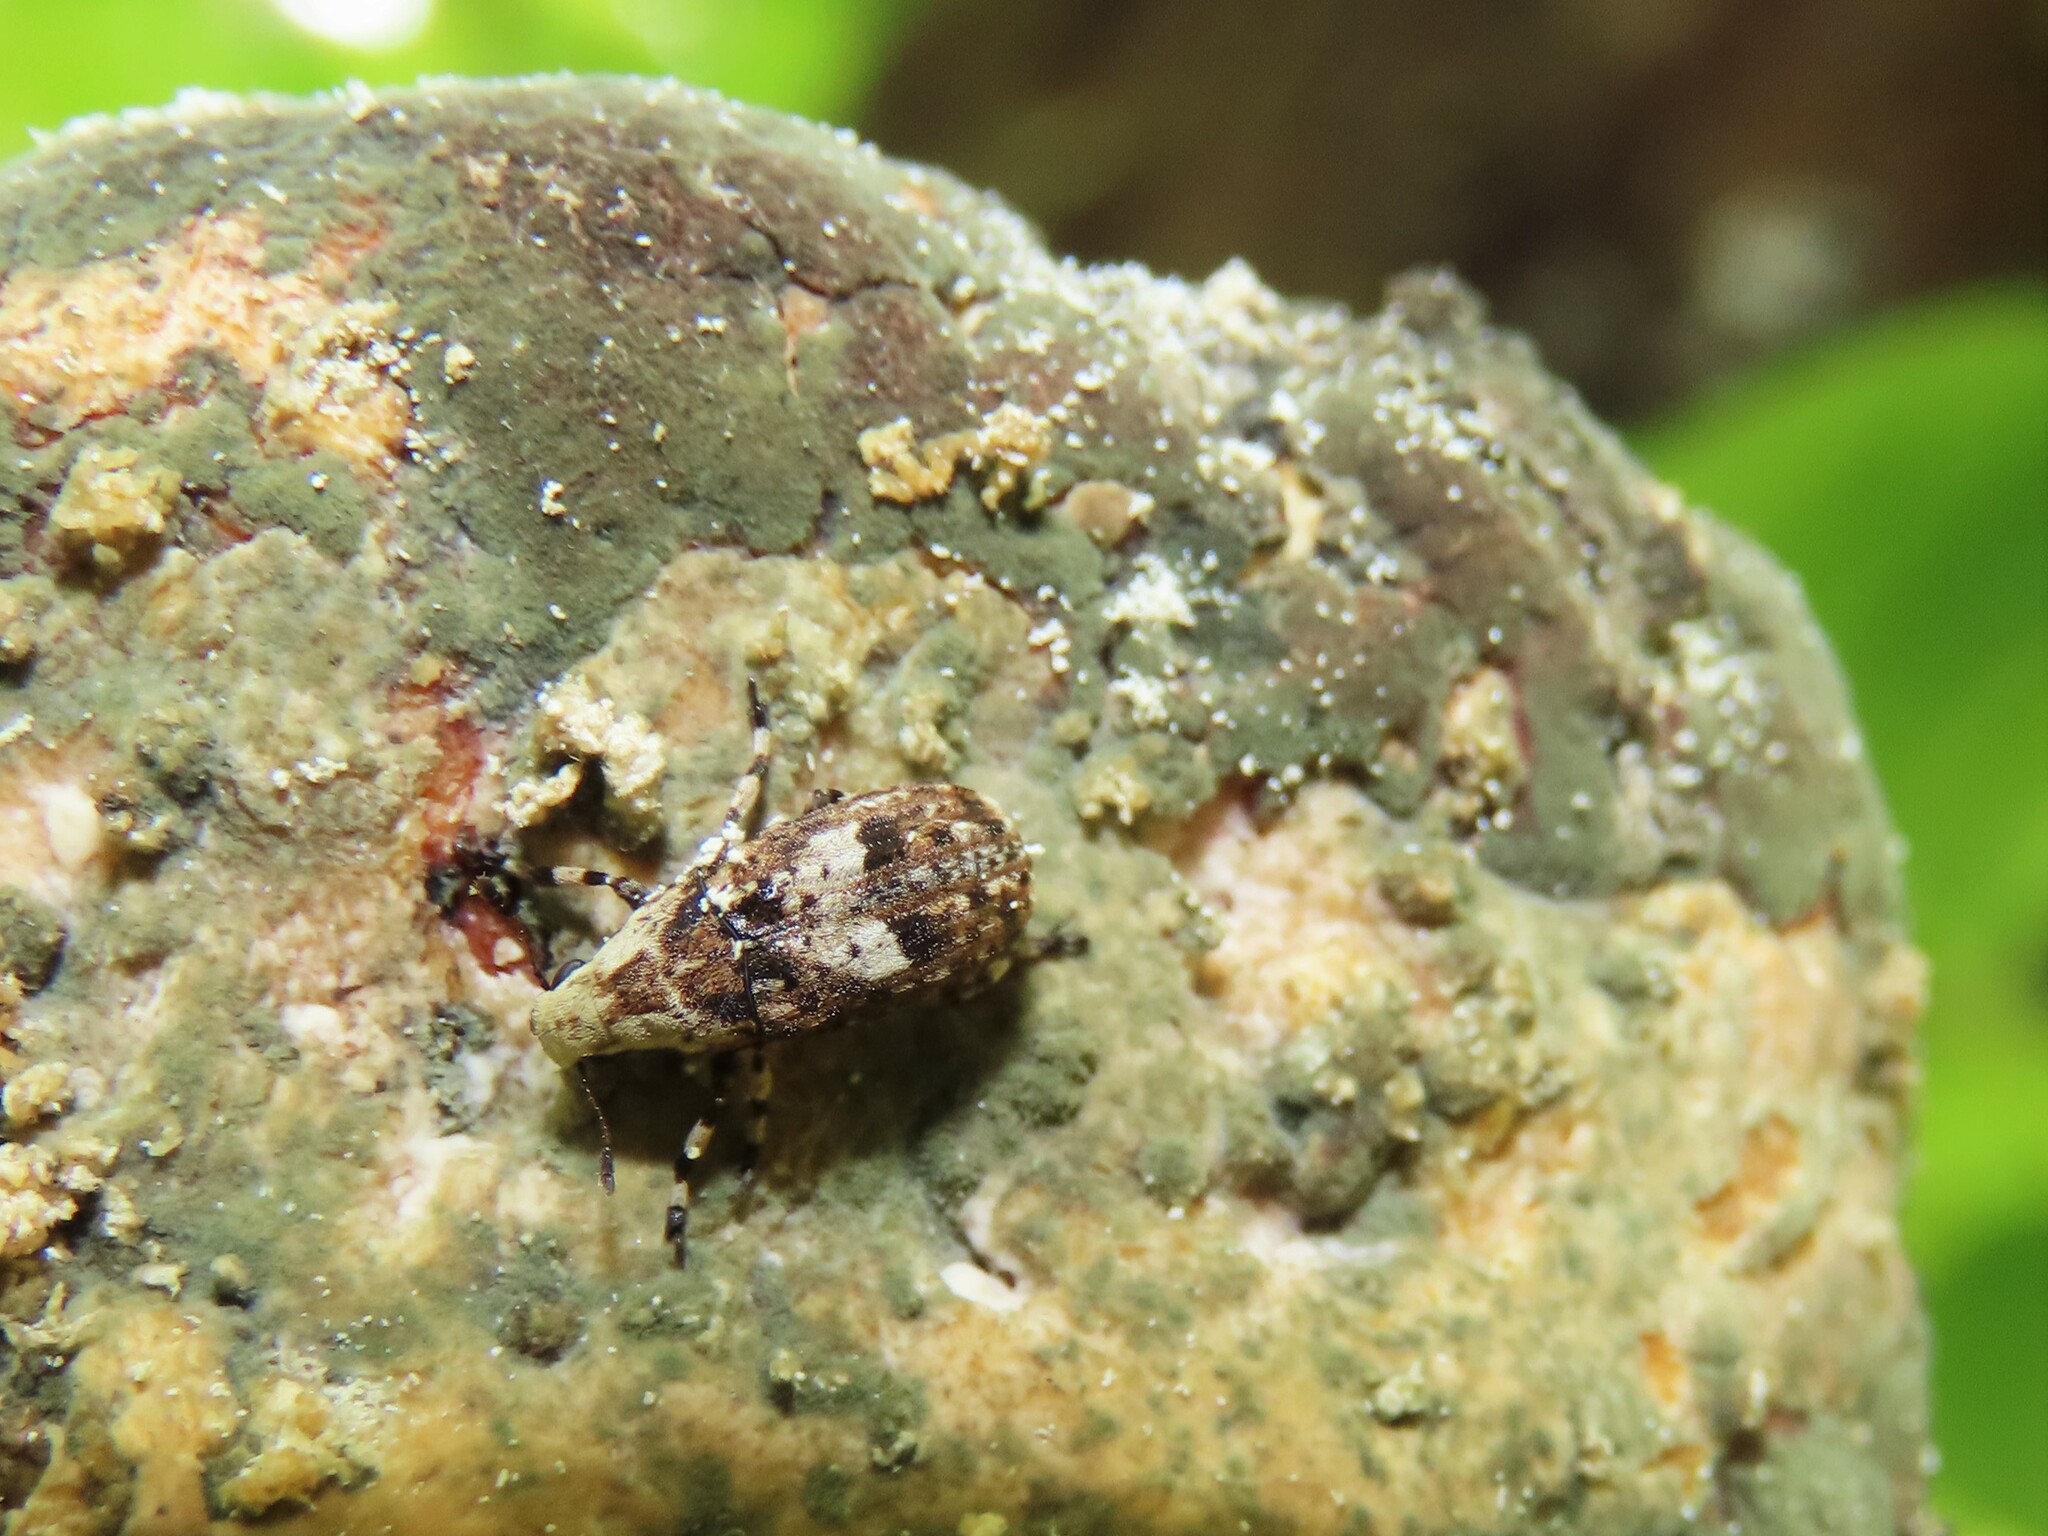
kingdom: Animalia
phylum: Arthropoda
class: Insecta
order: Coleoptera
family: Anthribidae
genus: Euparius
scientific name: Euparius marmoreus
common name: Marbled fungus weevil
